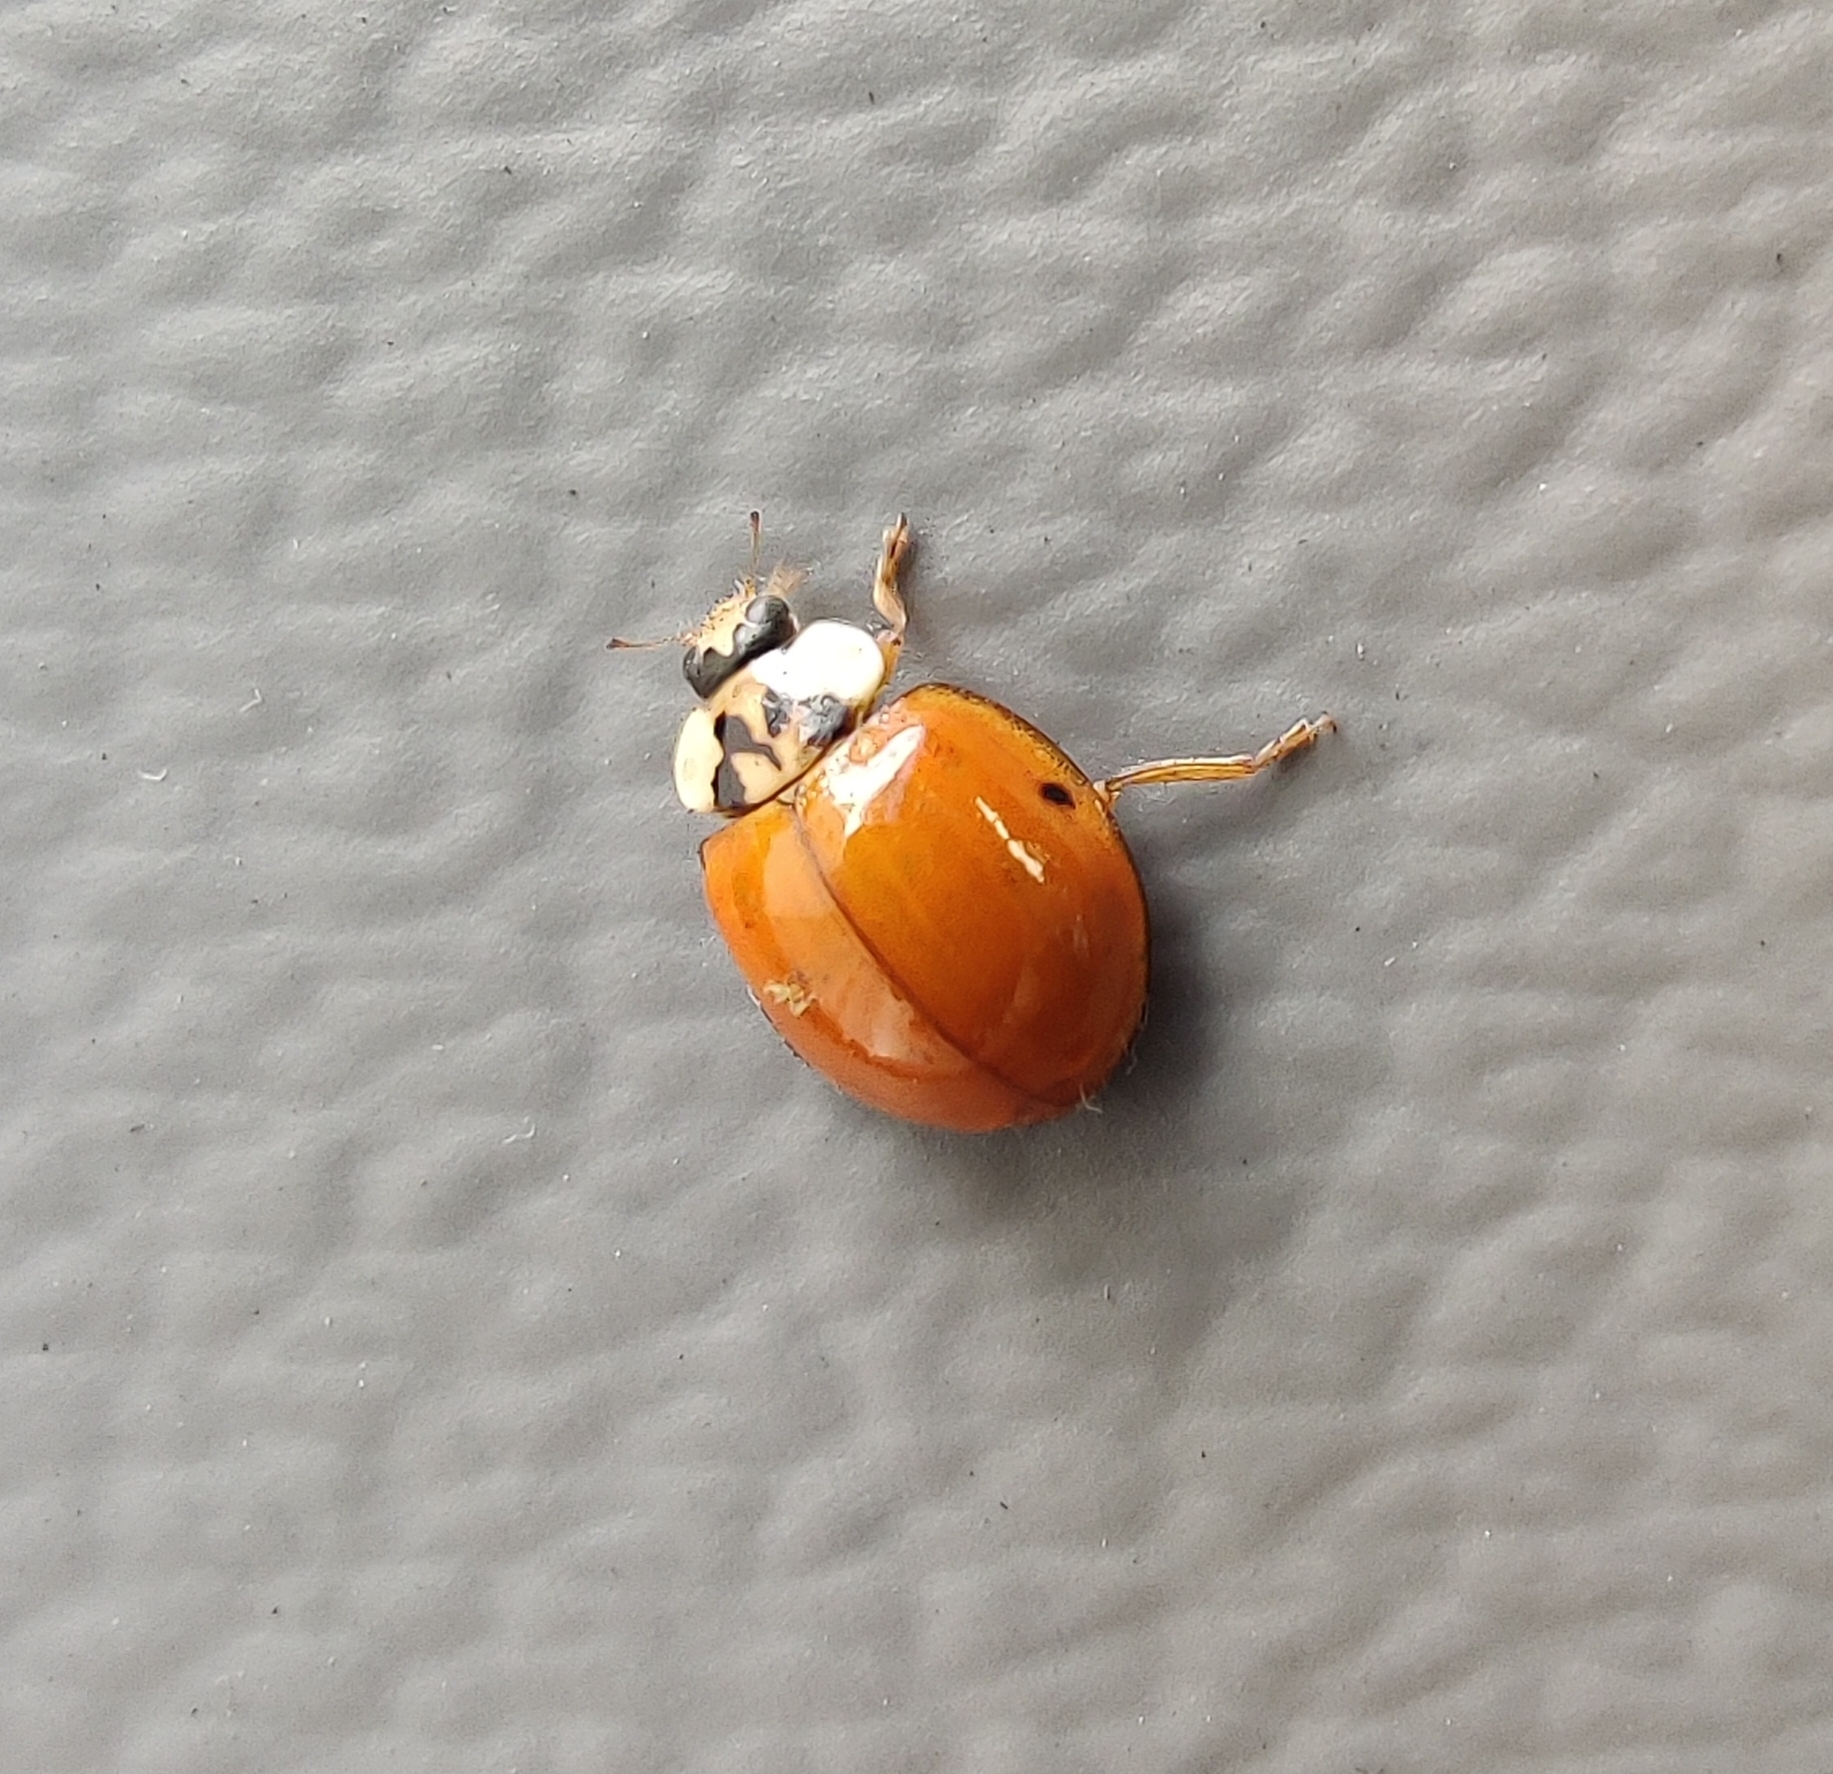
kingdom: Animalia
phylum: Arthropoda
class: Insecta
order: Coleoptera
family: Coccinellidae
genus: Harmonia
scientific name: Harmonia axyridis
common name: Harlequin ladybird
